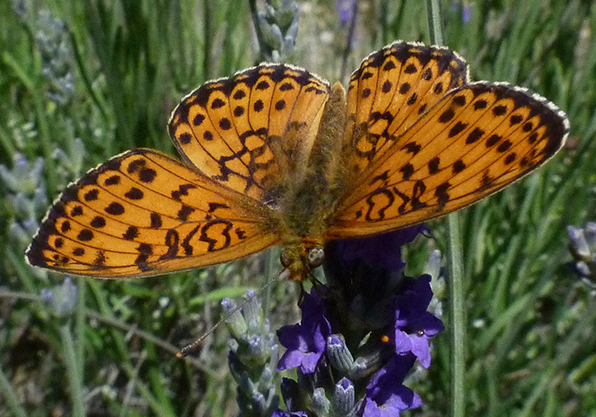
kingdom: Animalia
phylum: Arthropoda
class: Insecta
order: Lepidoptera
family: Nymphalidae
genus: Brenthis
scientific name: Brenthis hecate
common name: Twin-spot fritillary
